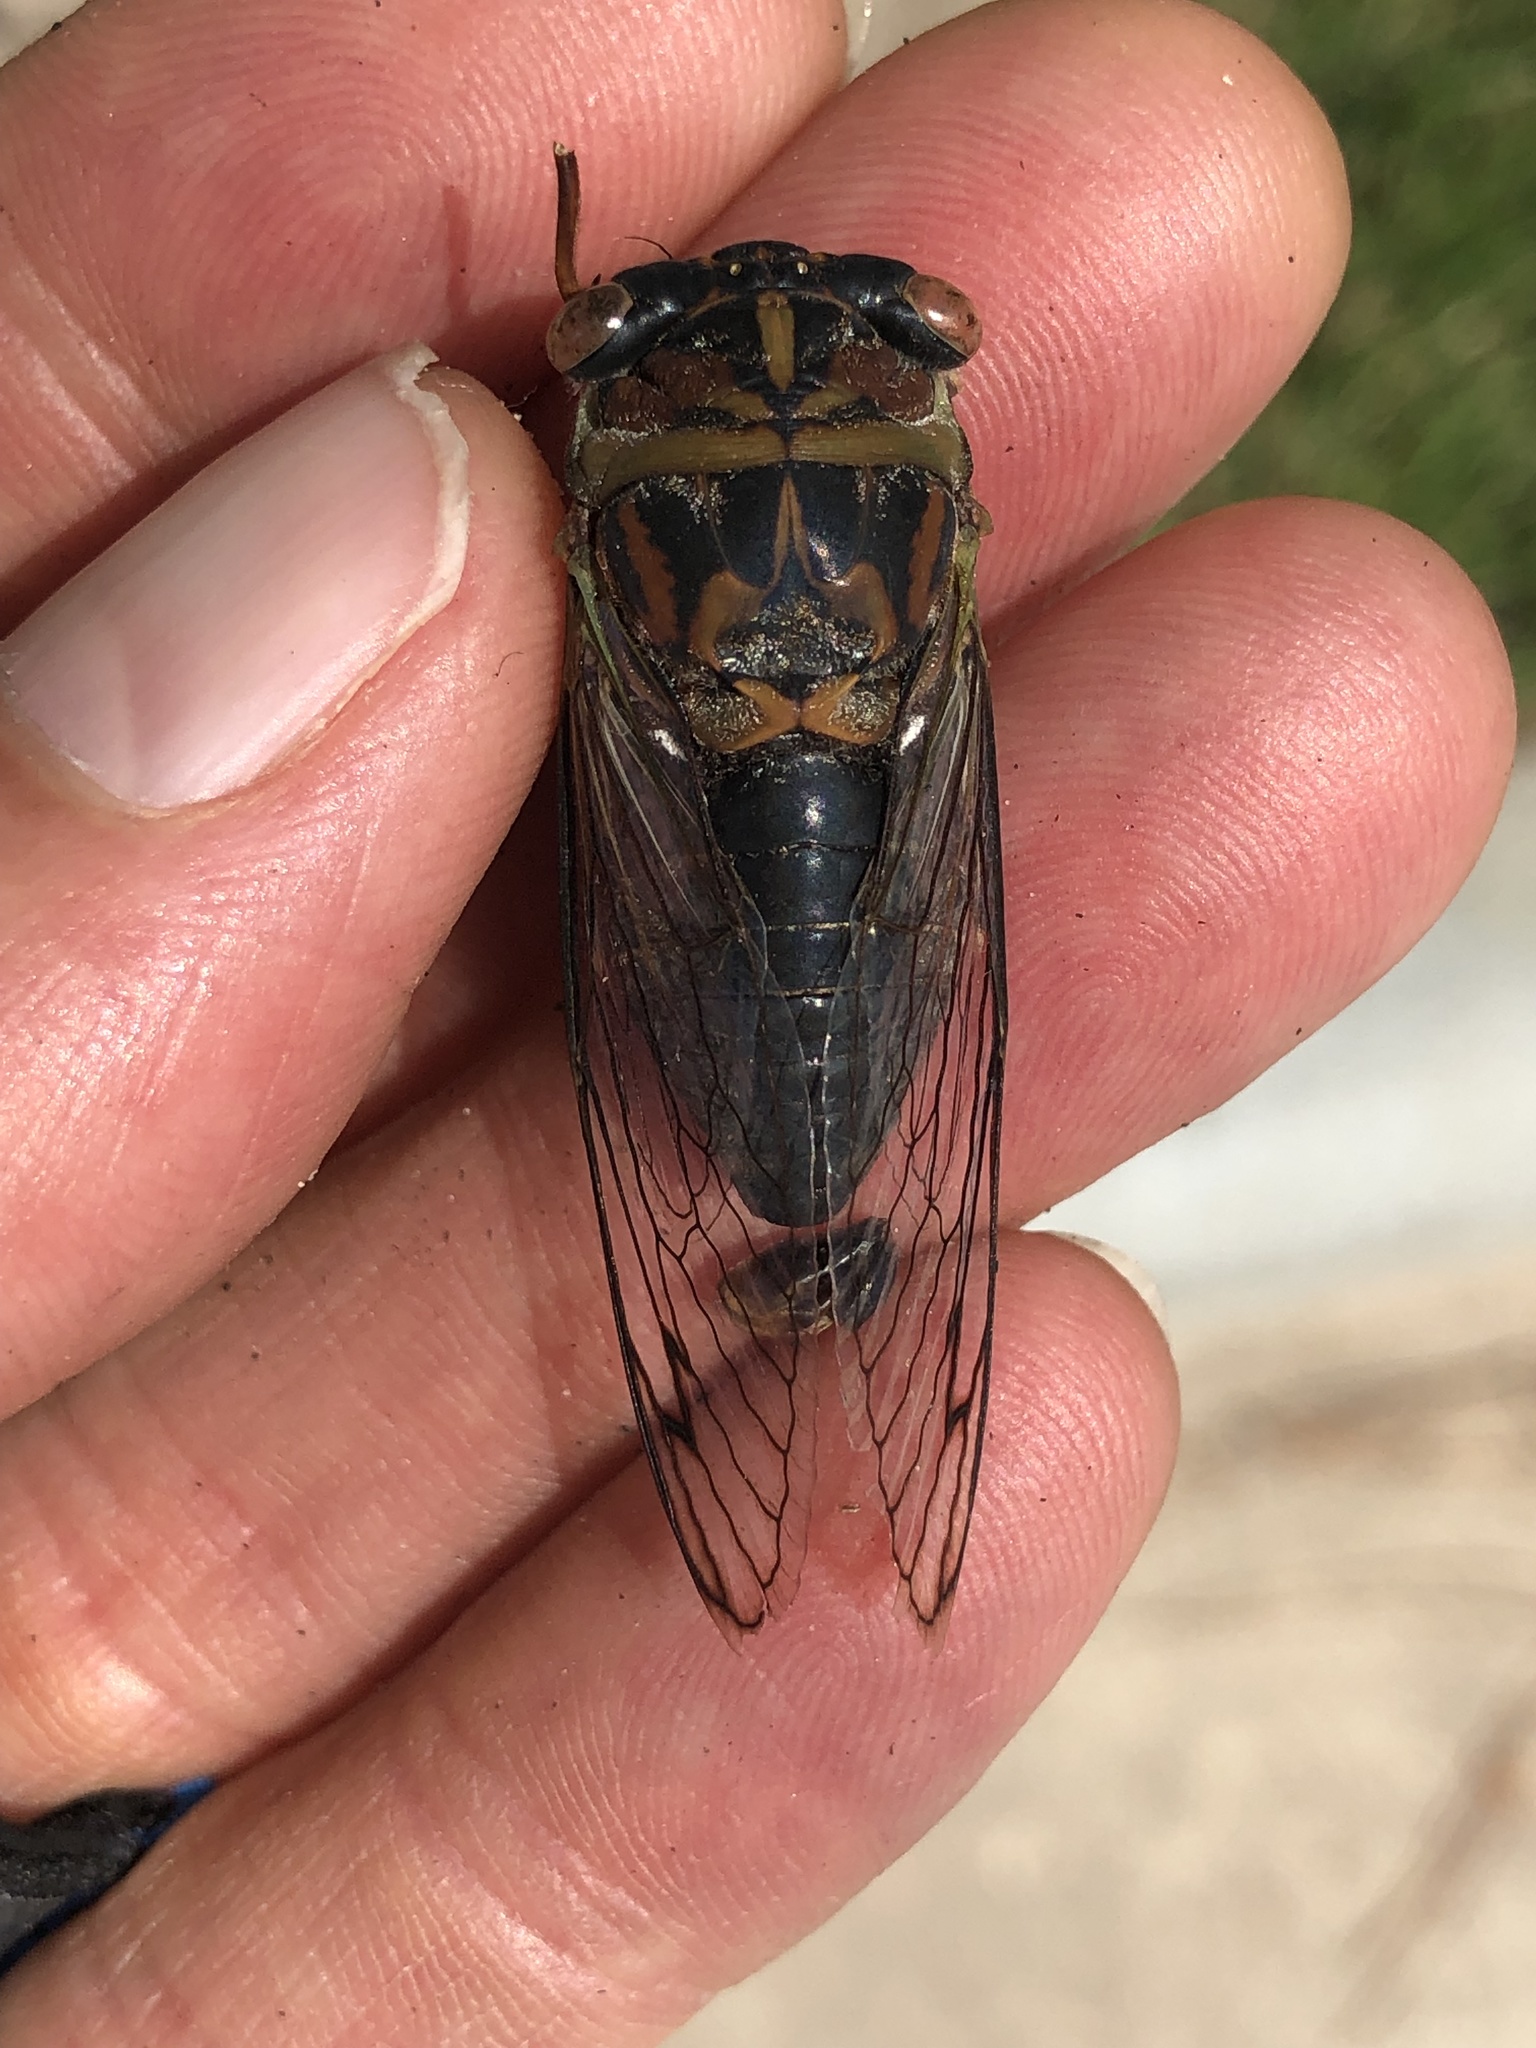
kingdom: Animalia
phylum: Arthropoda
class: Insecta
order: Hemiptera
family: Cicadidae
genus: Neotibicen
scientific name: Neotibicen davisi
